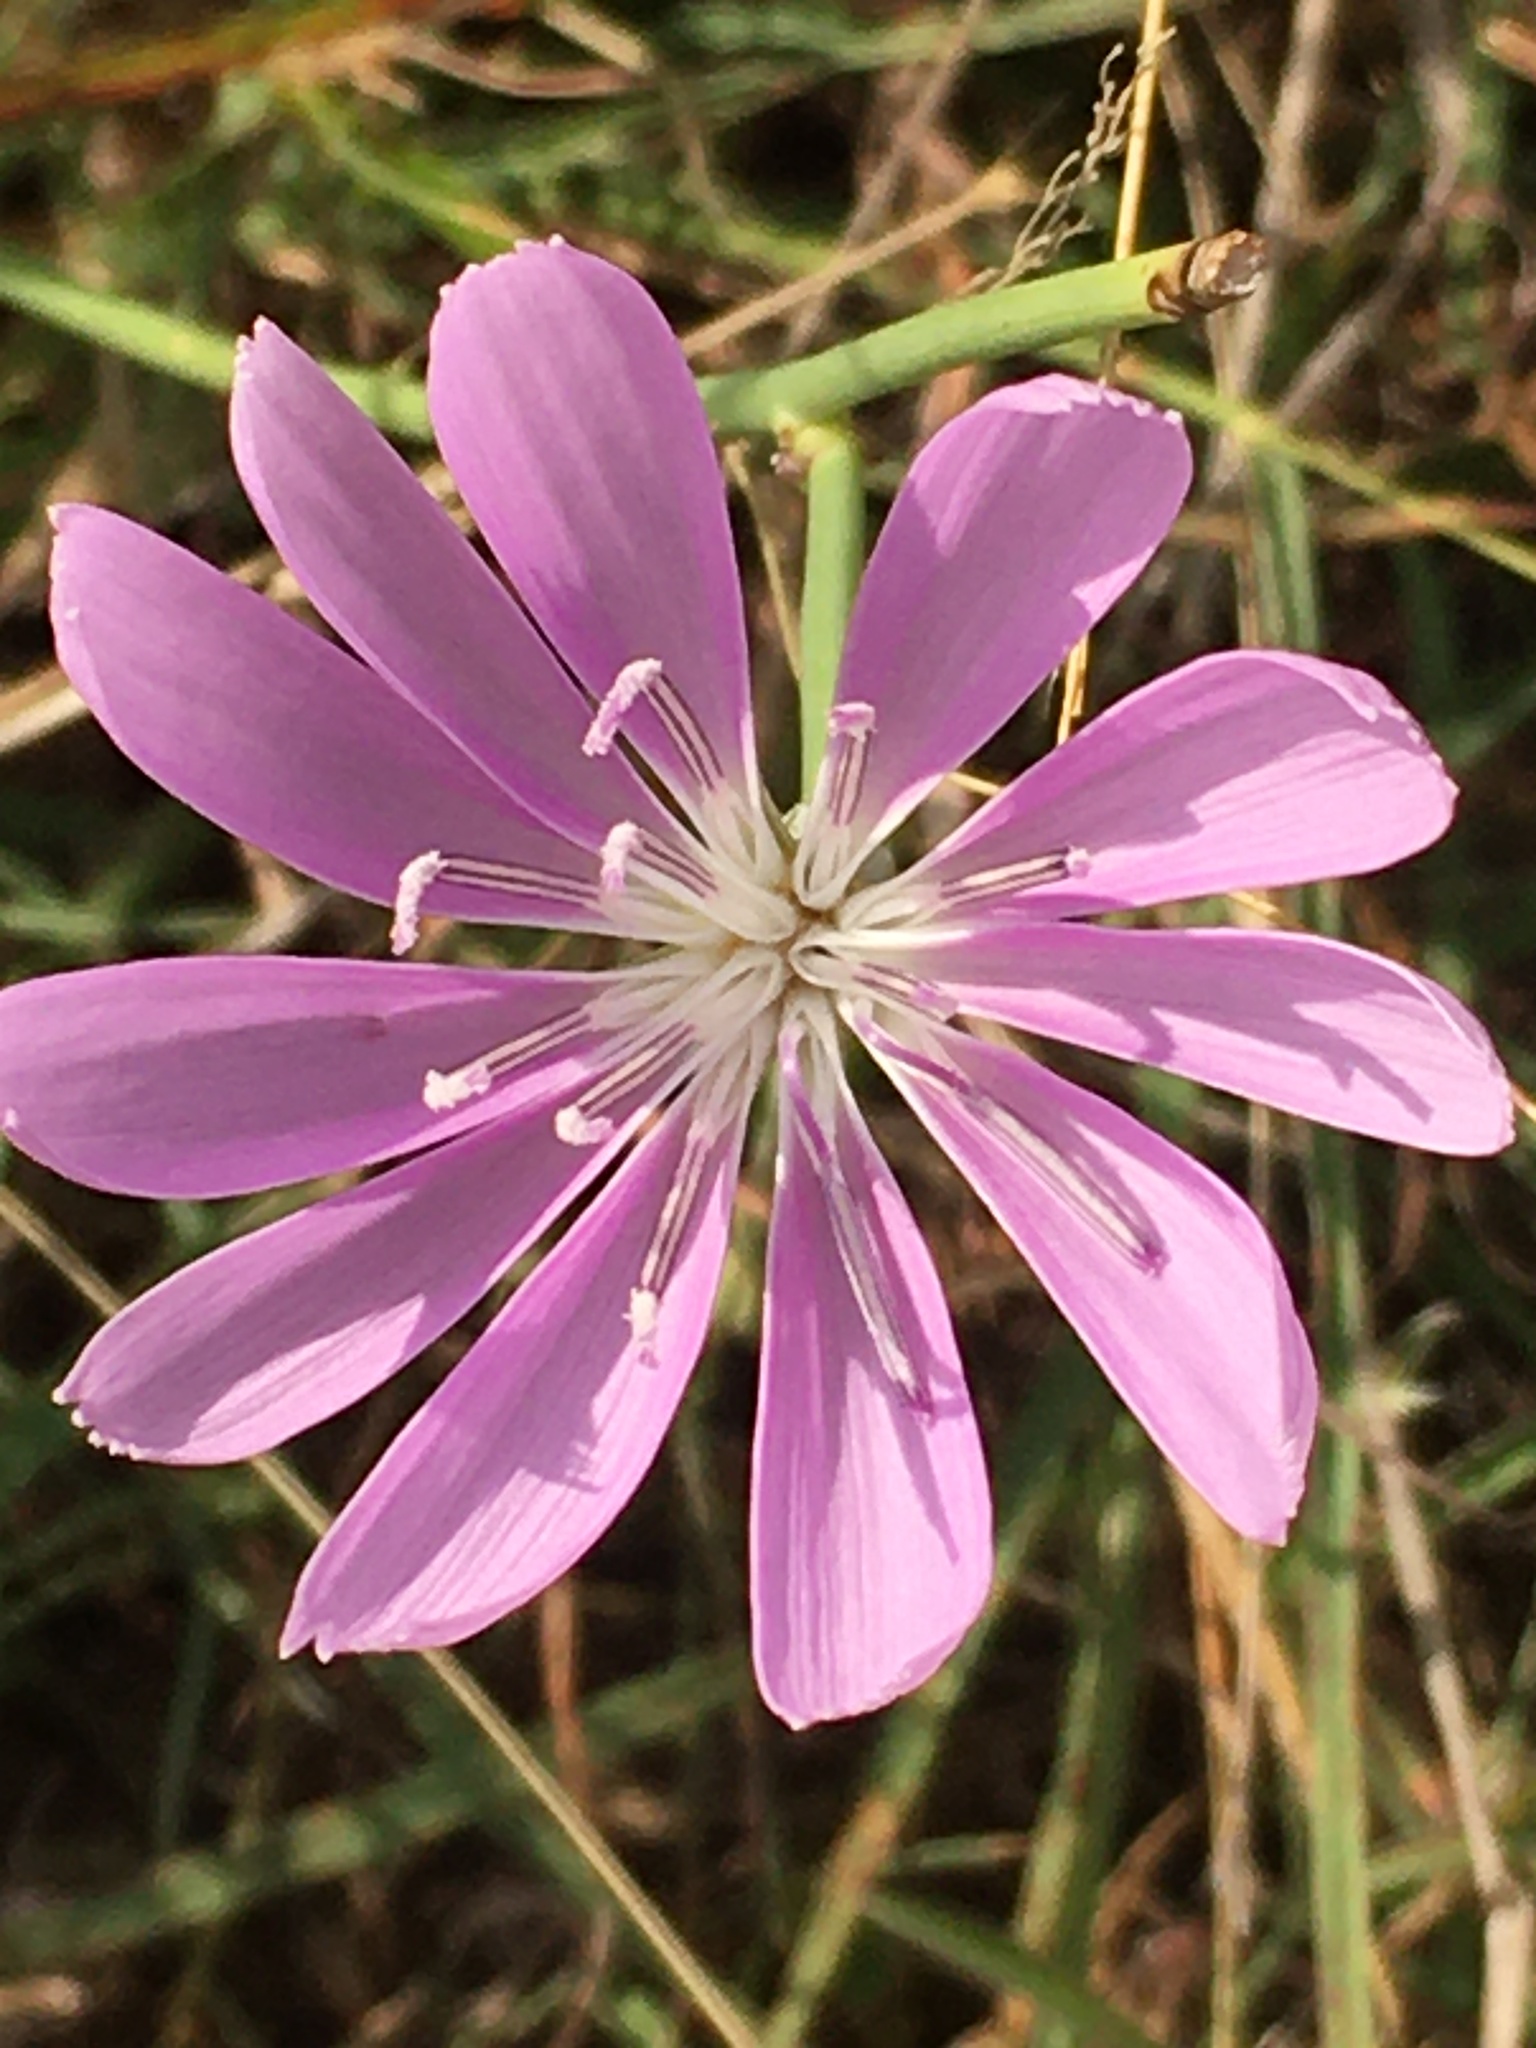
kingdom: Plantae
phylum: Tracheophyta
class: Magnoliopsida
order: Asterales
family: Asteraceae
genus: Lygodesmia
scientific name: Lygodesmia texana
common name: Texas skeleton-plant
